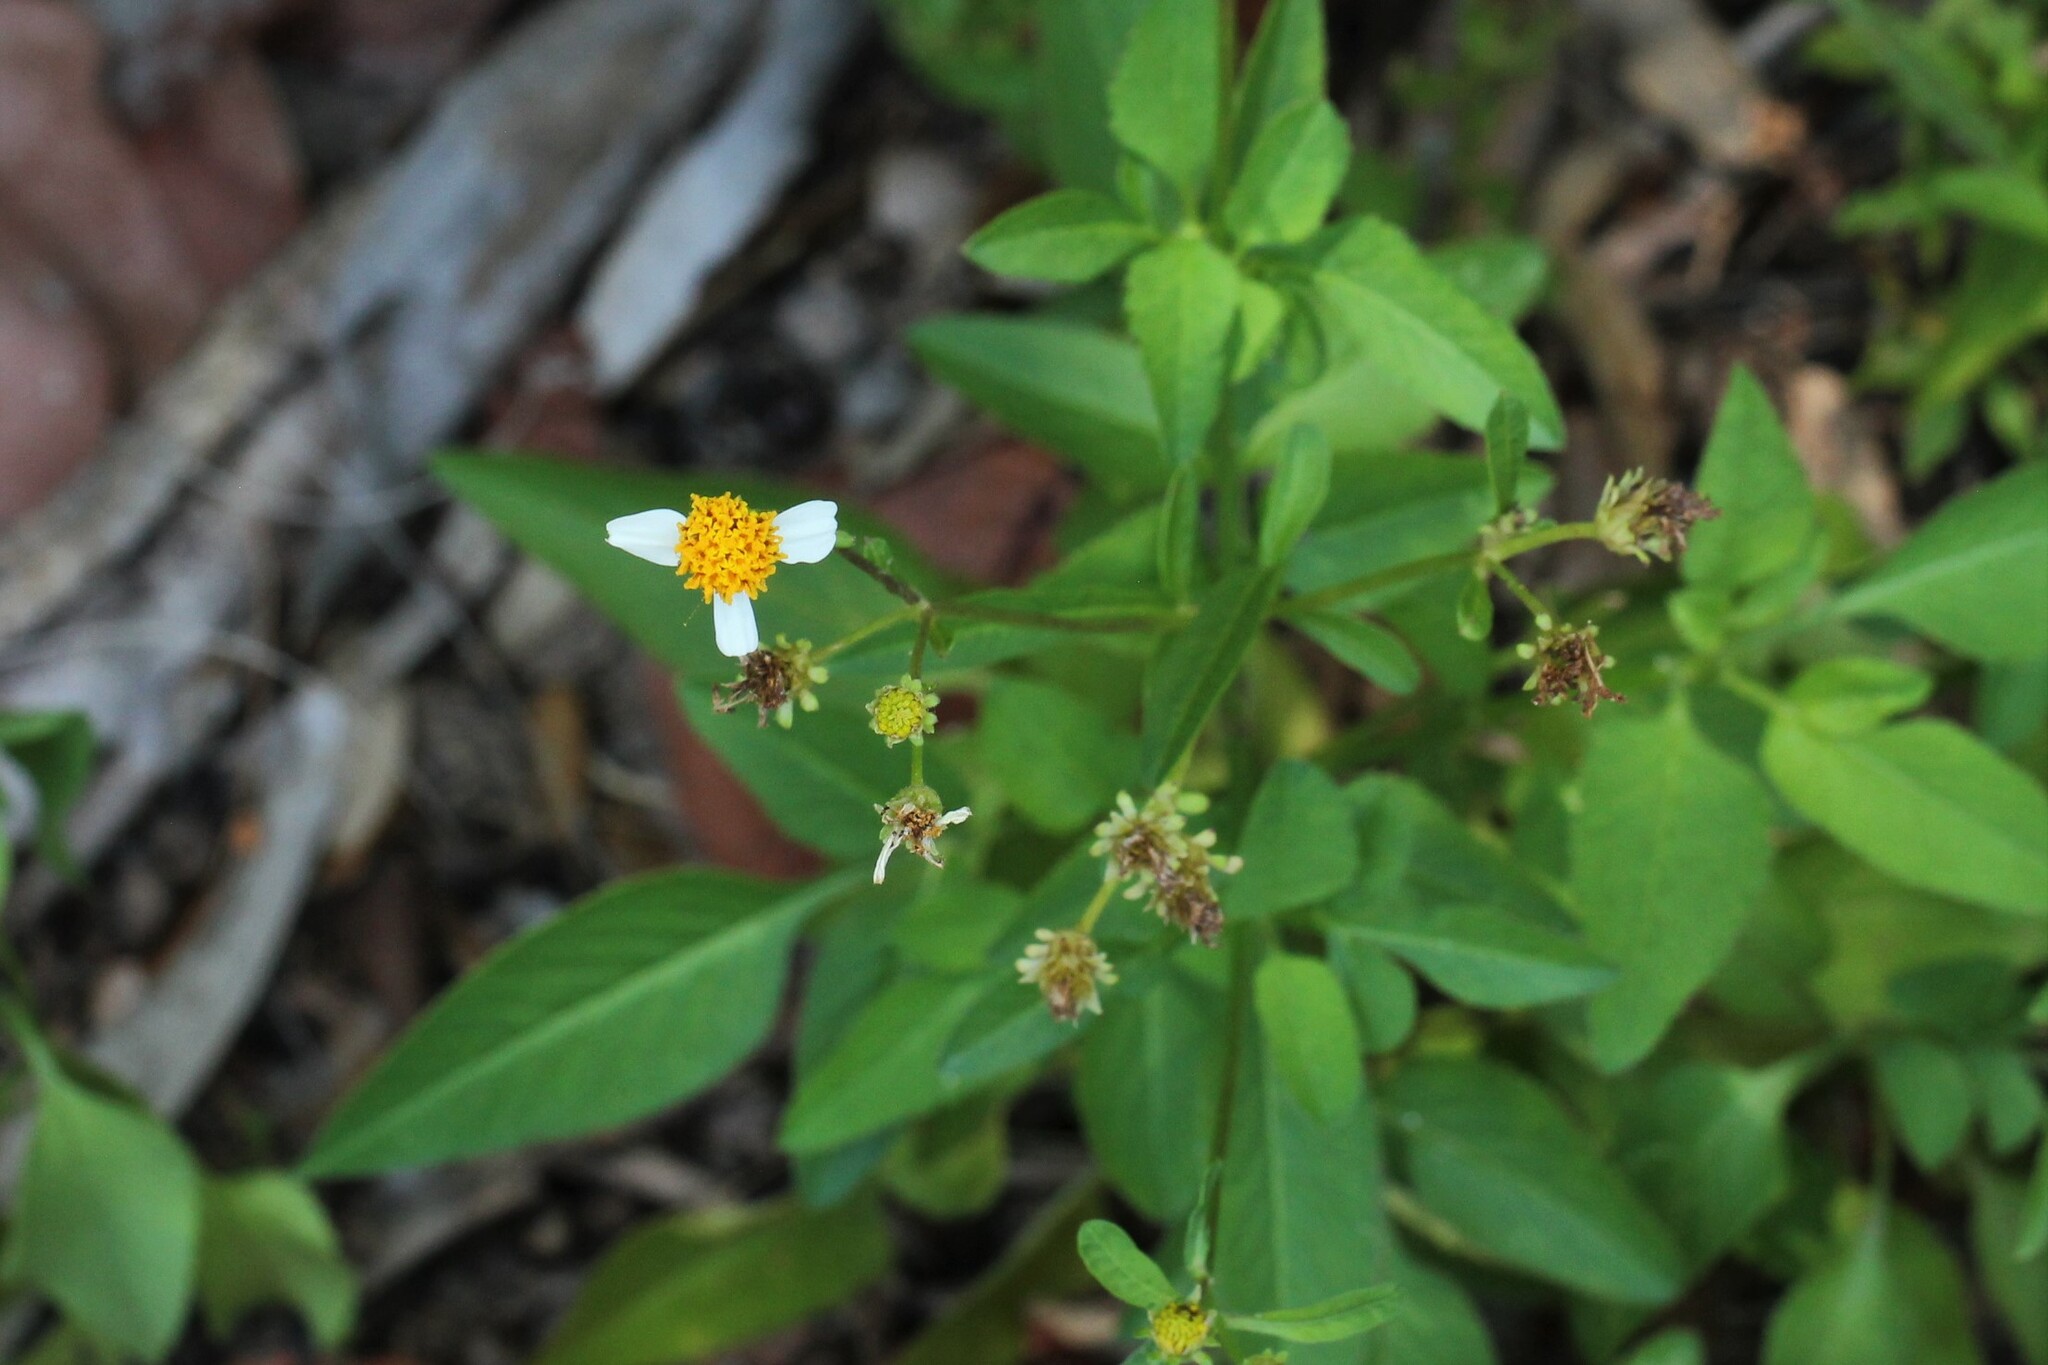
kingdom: Plantae
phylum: Tracheophyta
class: Magnoliopsida
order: Asterales
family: Asteraceae
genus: Bidens
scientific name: Bidens alba
